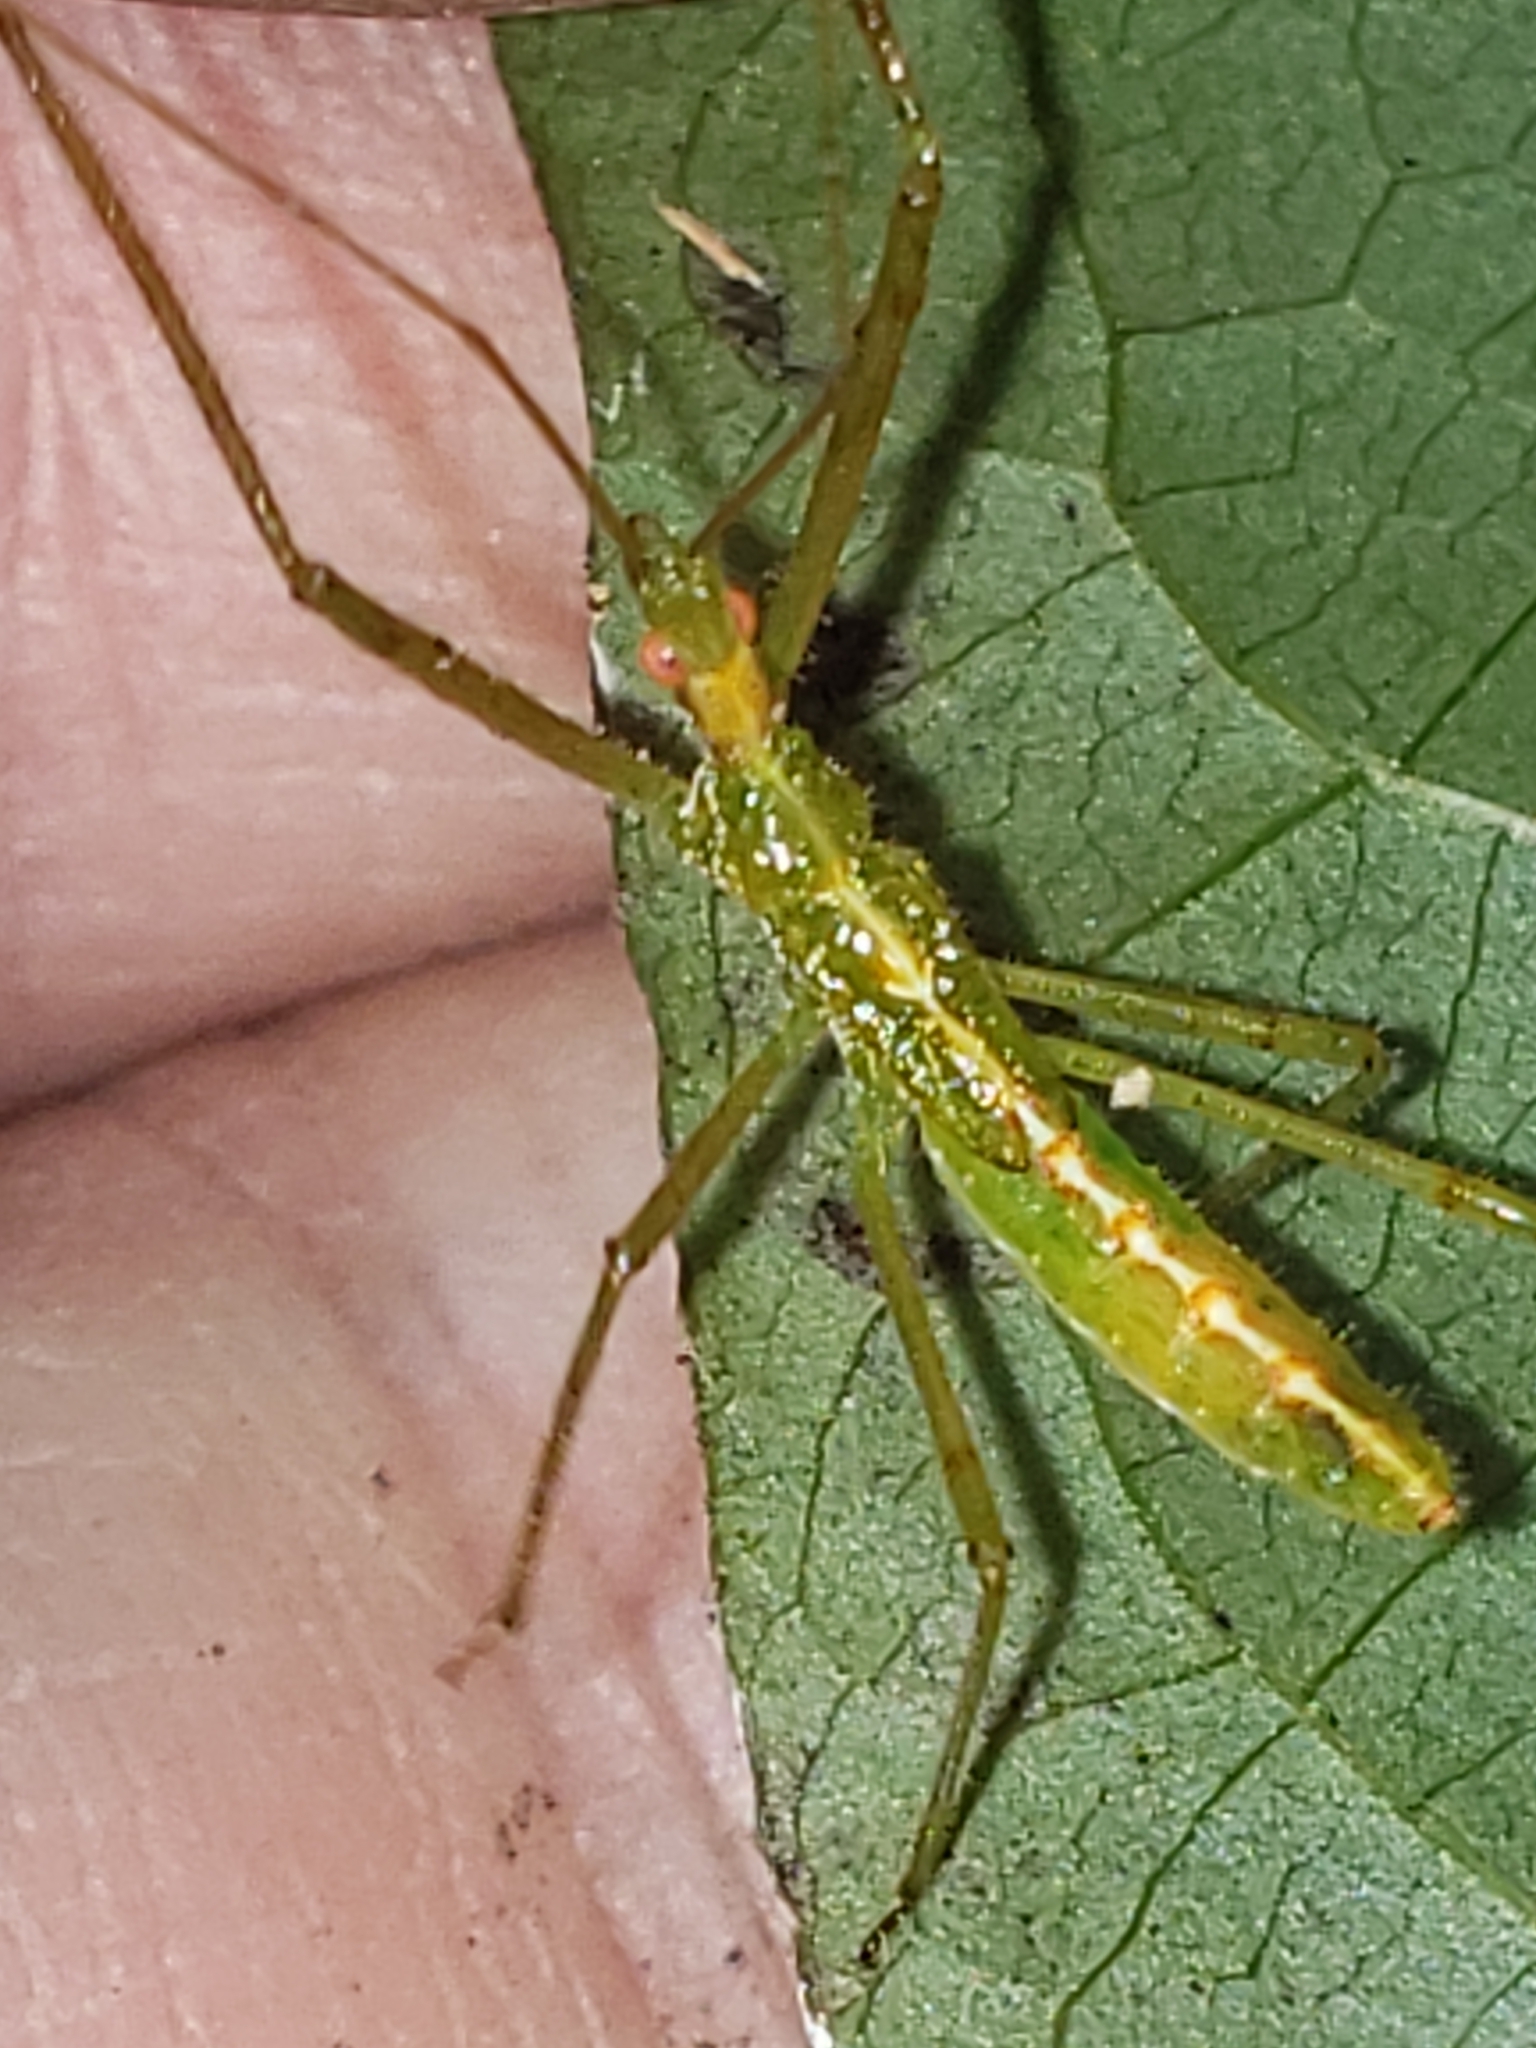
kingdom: Animalia
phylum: Arthropoda
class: Insecta
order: Hemiptera
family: Reduviidae
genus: Zelus
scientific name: Zelus luridus
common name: Pale green assassin bug
